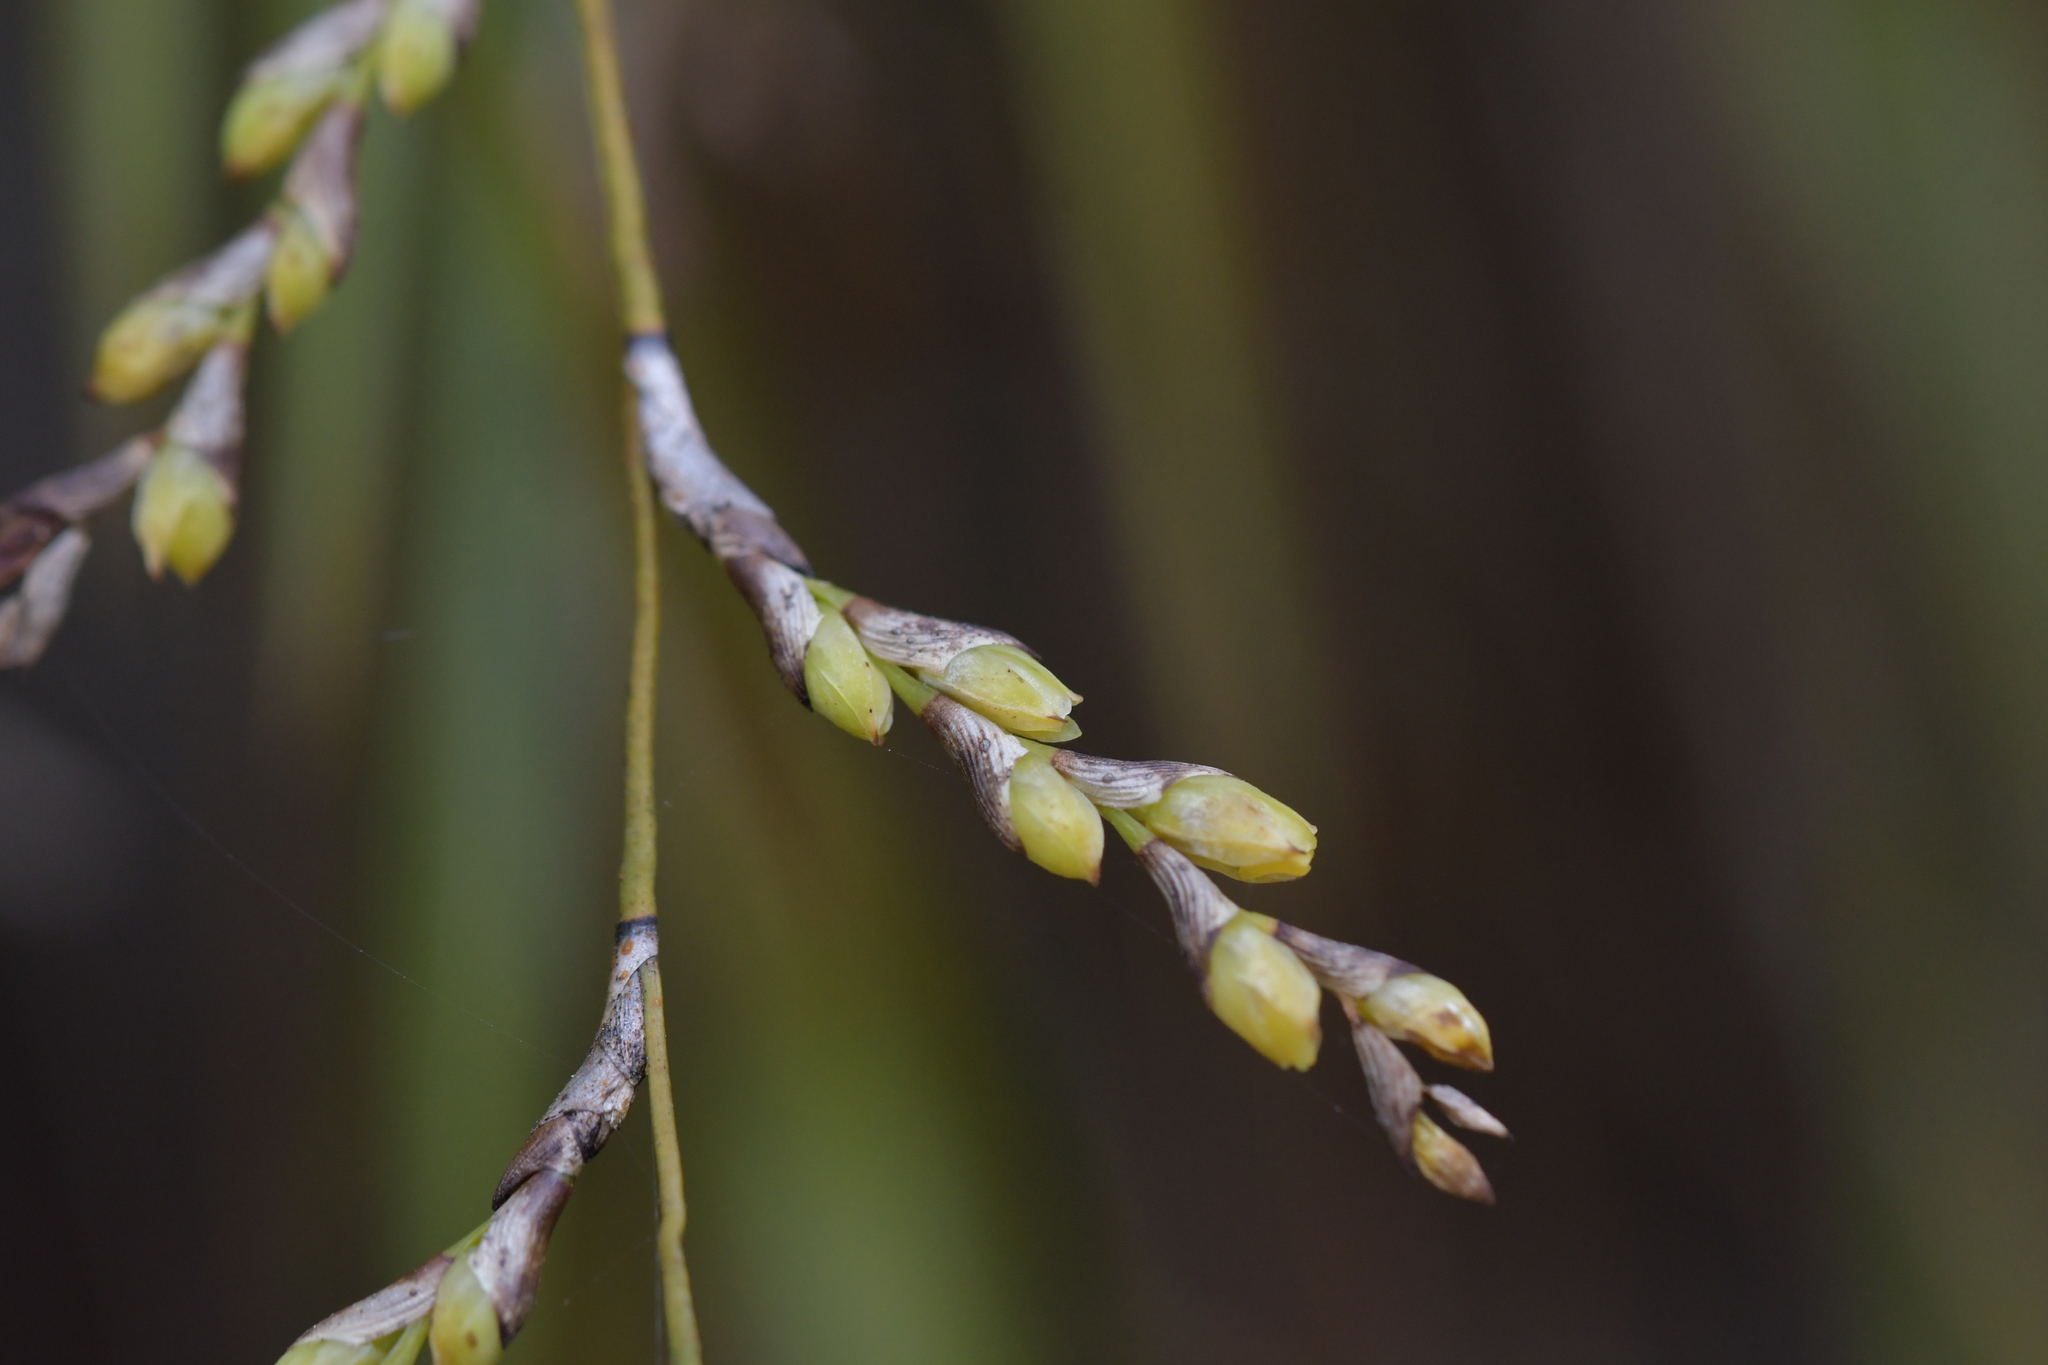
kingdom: Plantae
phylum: Tracheophyta
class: Liliopsida
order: Asparagales
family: Orchidaceae
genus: Earina
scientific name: Earina mucronata
